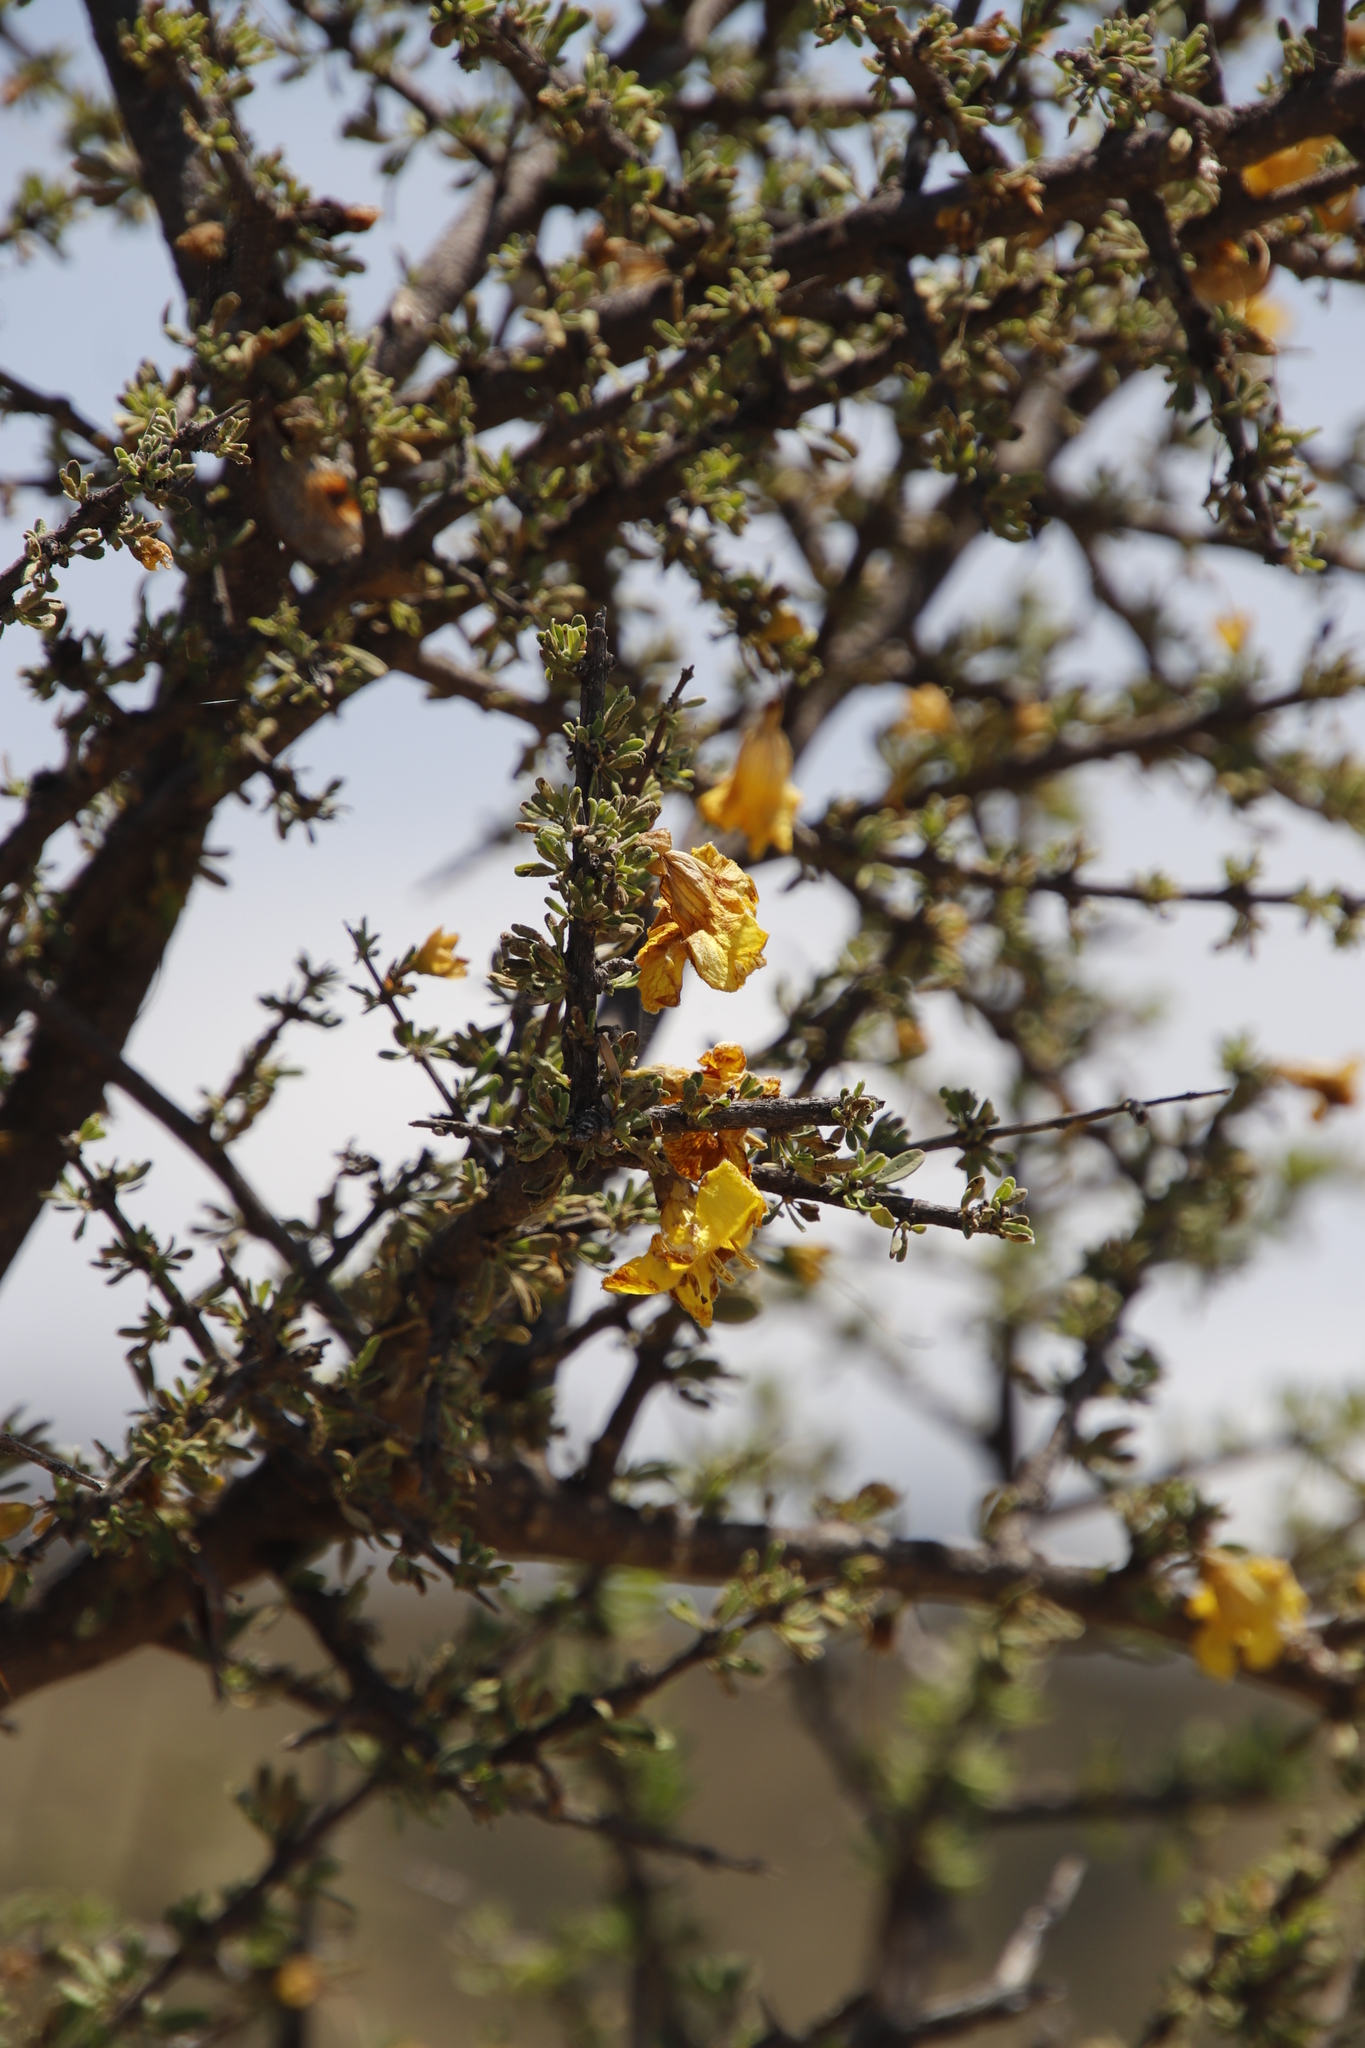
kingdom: Plantae
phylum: Tracheophyta
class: Magnoliopsida
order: Lamiales
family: Bignoniaceae
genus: Rhigozum
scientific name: Rhigozum obovatum
